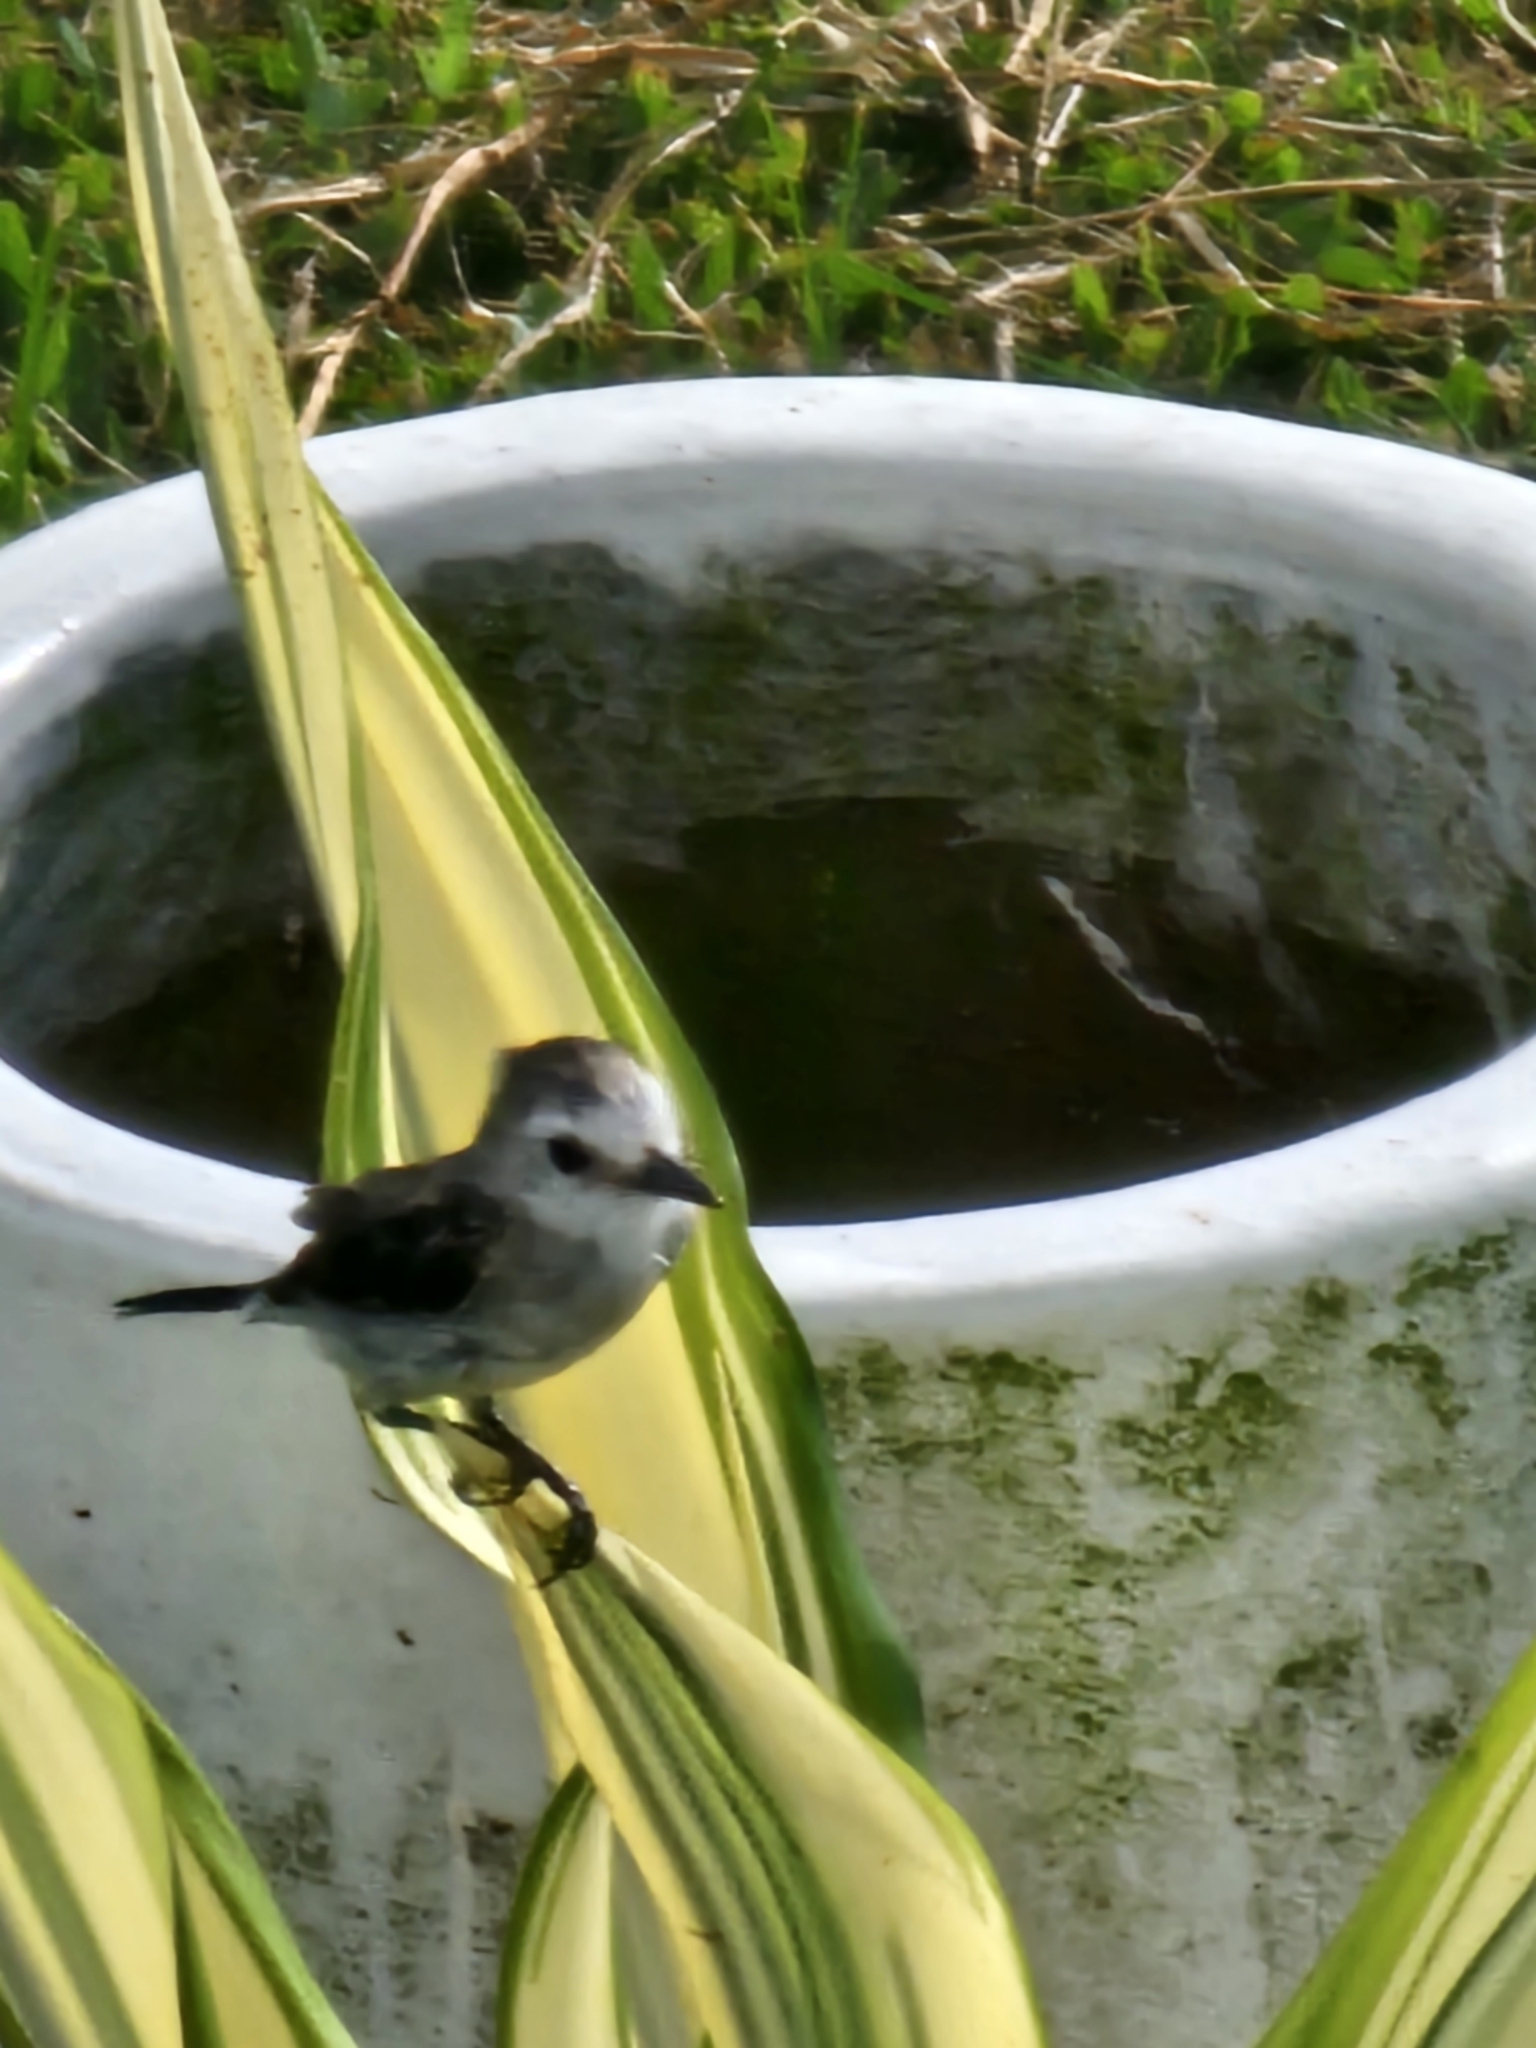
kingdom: Animalia
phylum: Chordata
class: Aves
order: Passeriformes
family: Tyrannidae
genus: Arundinicola
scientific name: Arundinicola leucocephala
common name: White-headed marsh tyrant
